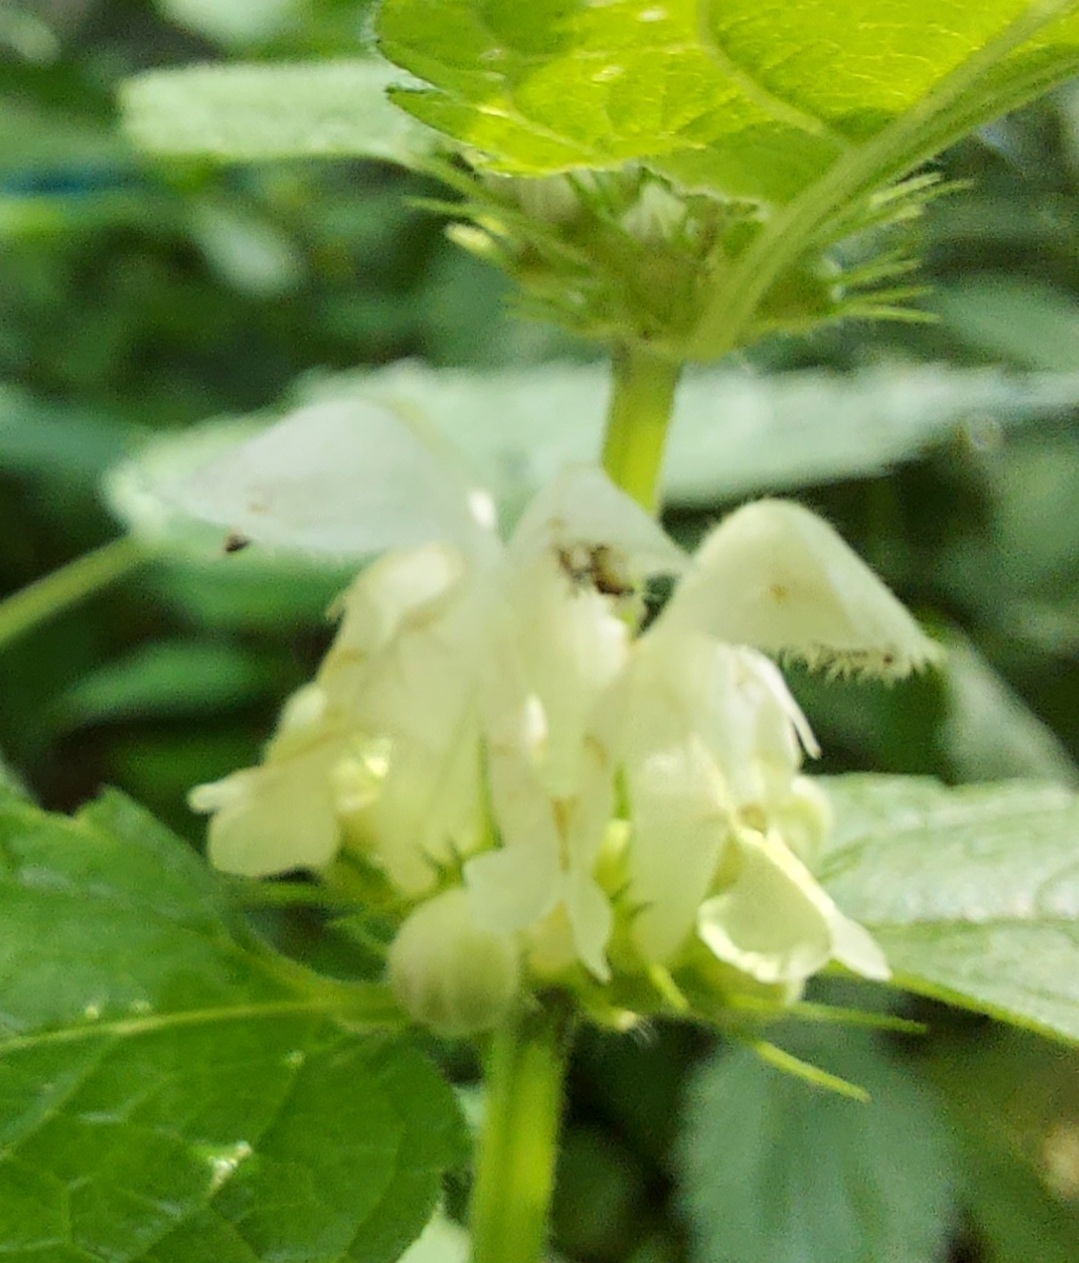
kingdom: Plantae
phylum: Tracheophyta
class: Magnoliopsida
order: Lamiales
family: Lamiaceae
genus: Lamium
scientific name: Lamium album
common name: White dead-nettle
